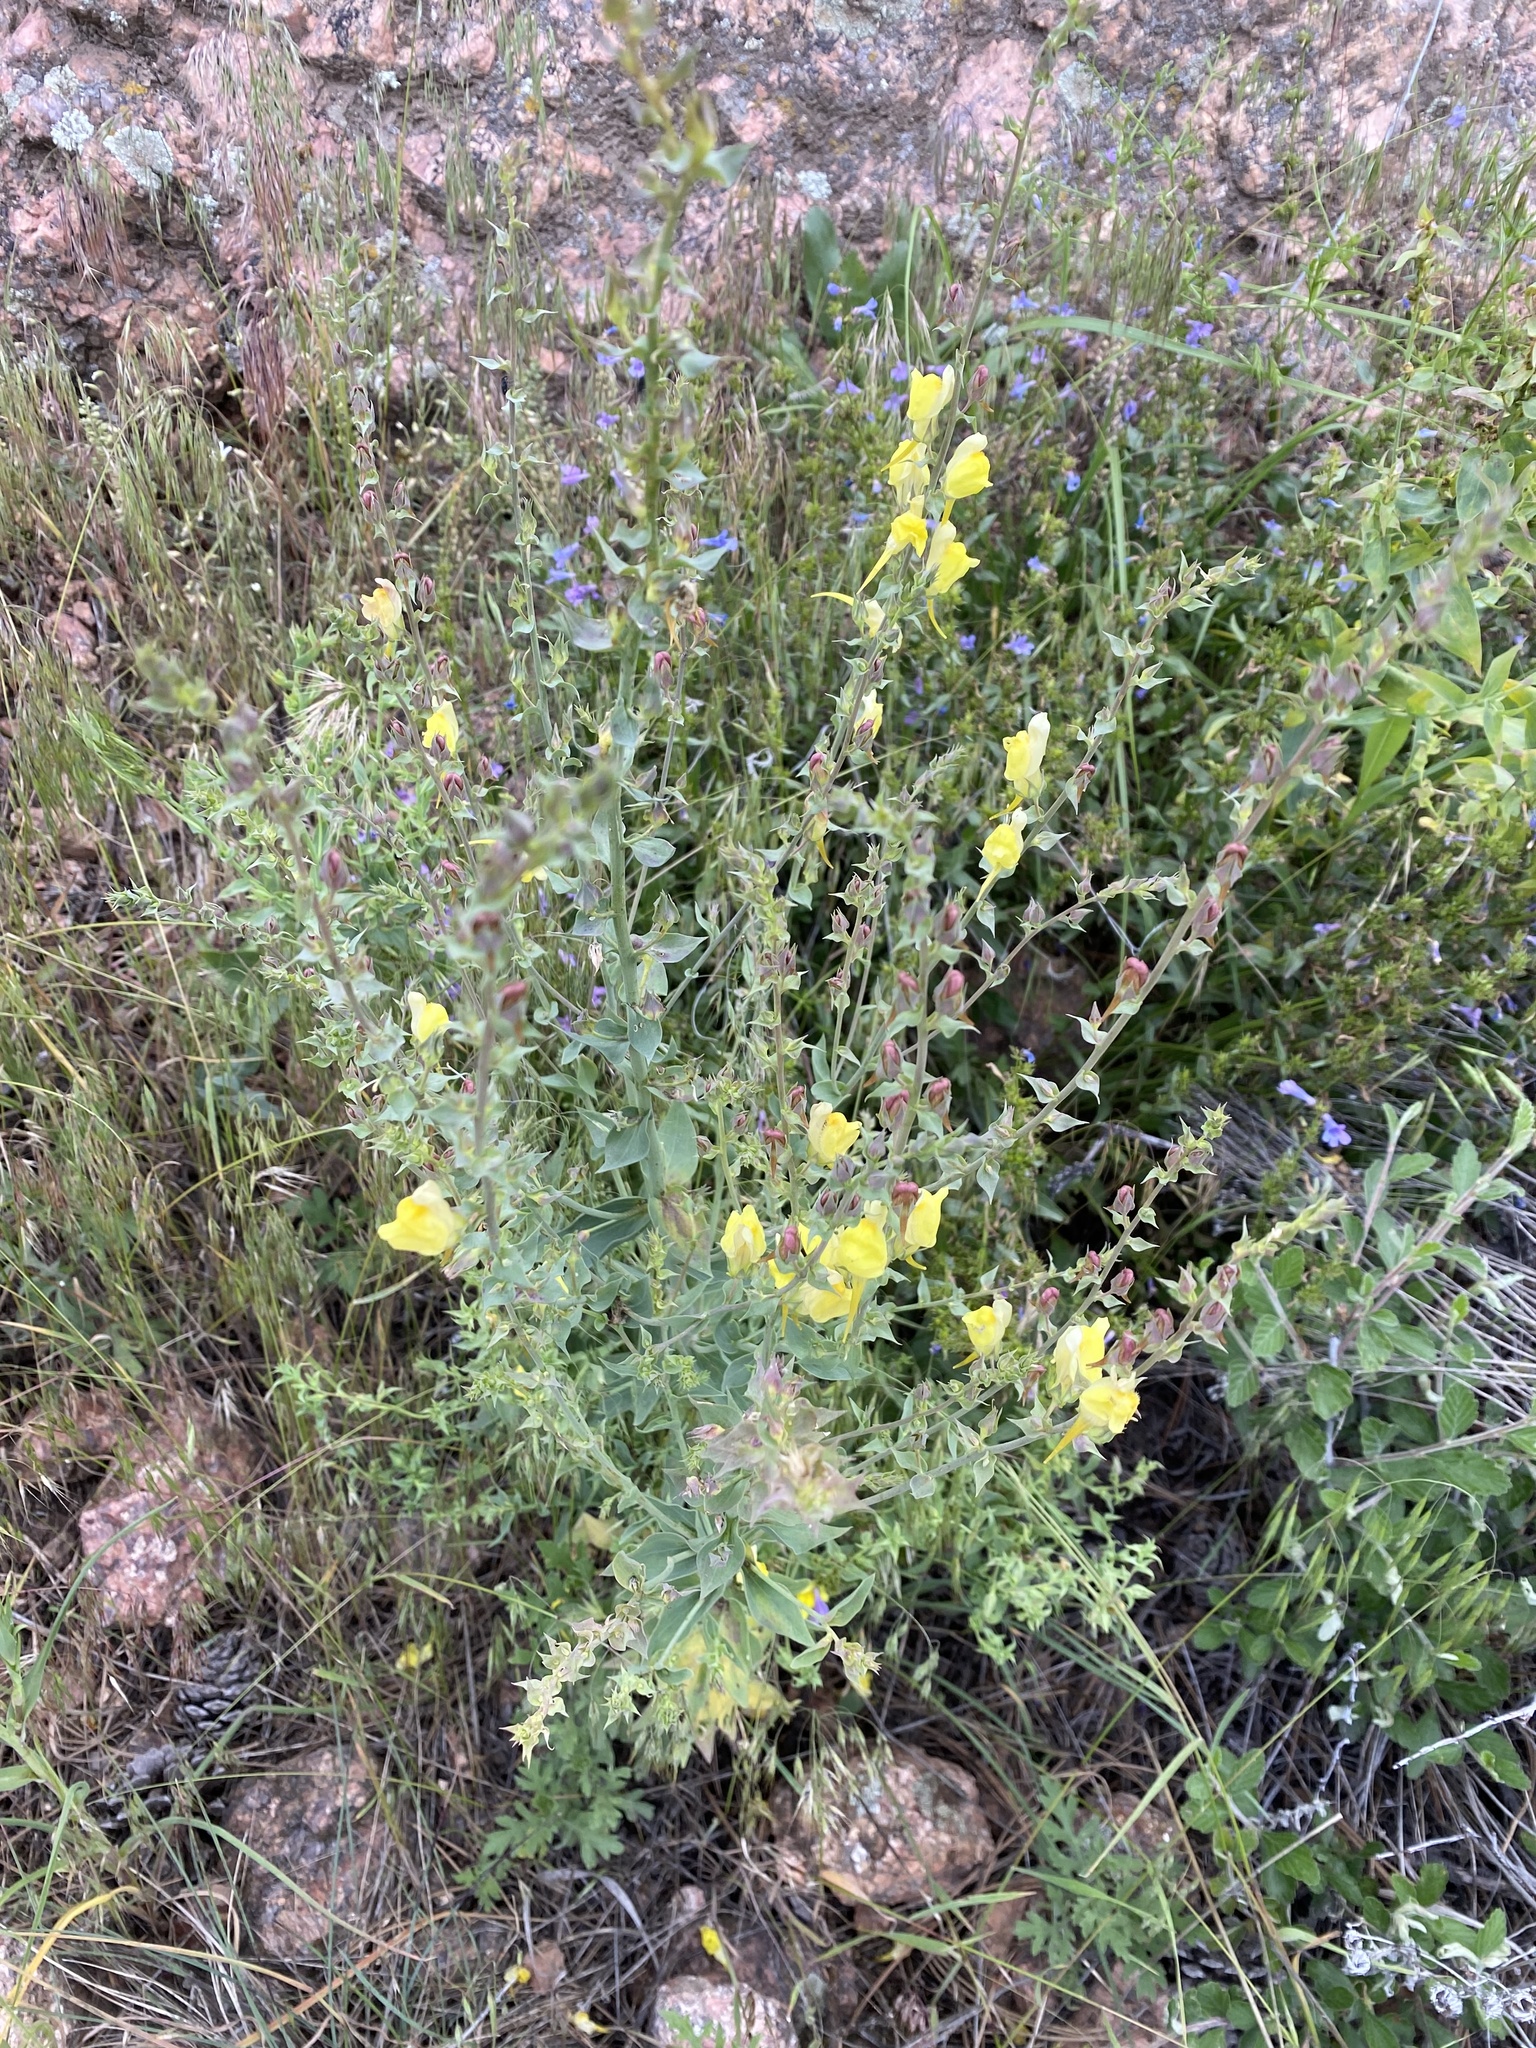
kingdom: Plantae
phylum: Tracheophyta
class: Magnoliopsida
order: Lamiales
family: Plantaginaceae
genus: Linaria
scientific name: Linaria dalmatica
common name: Dalmatian toadflax
